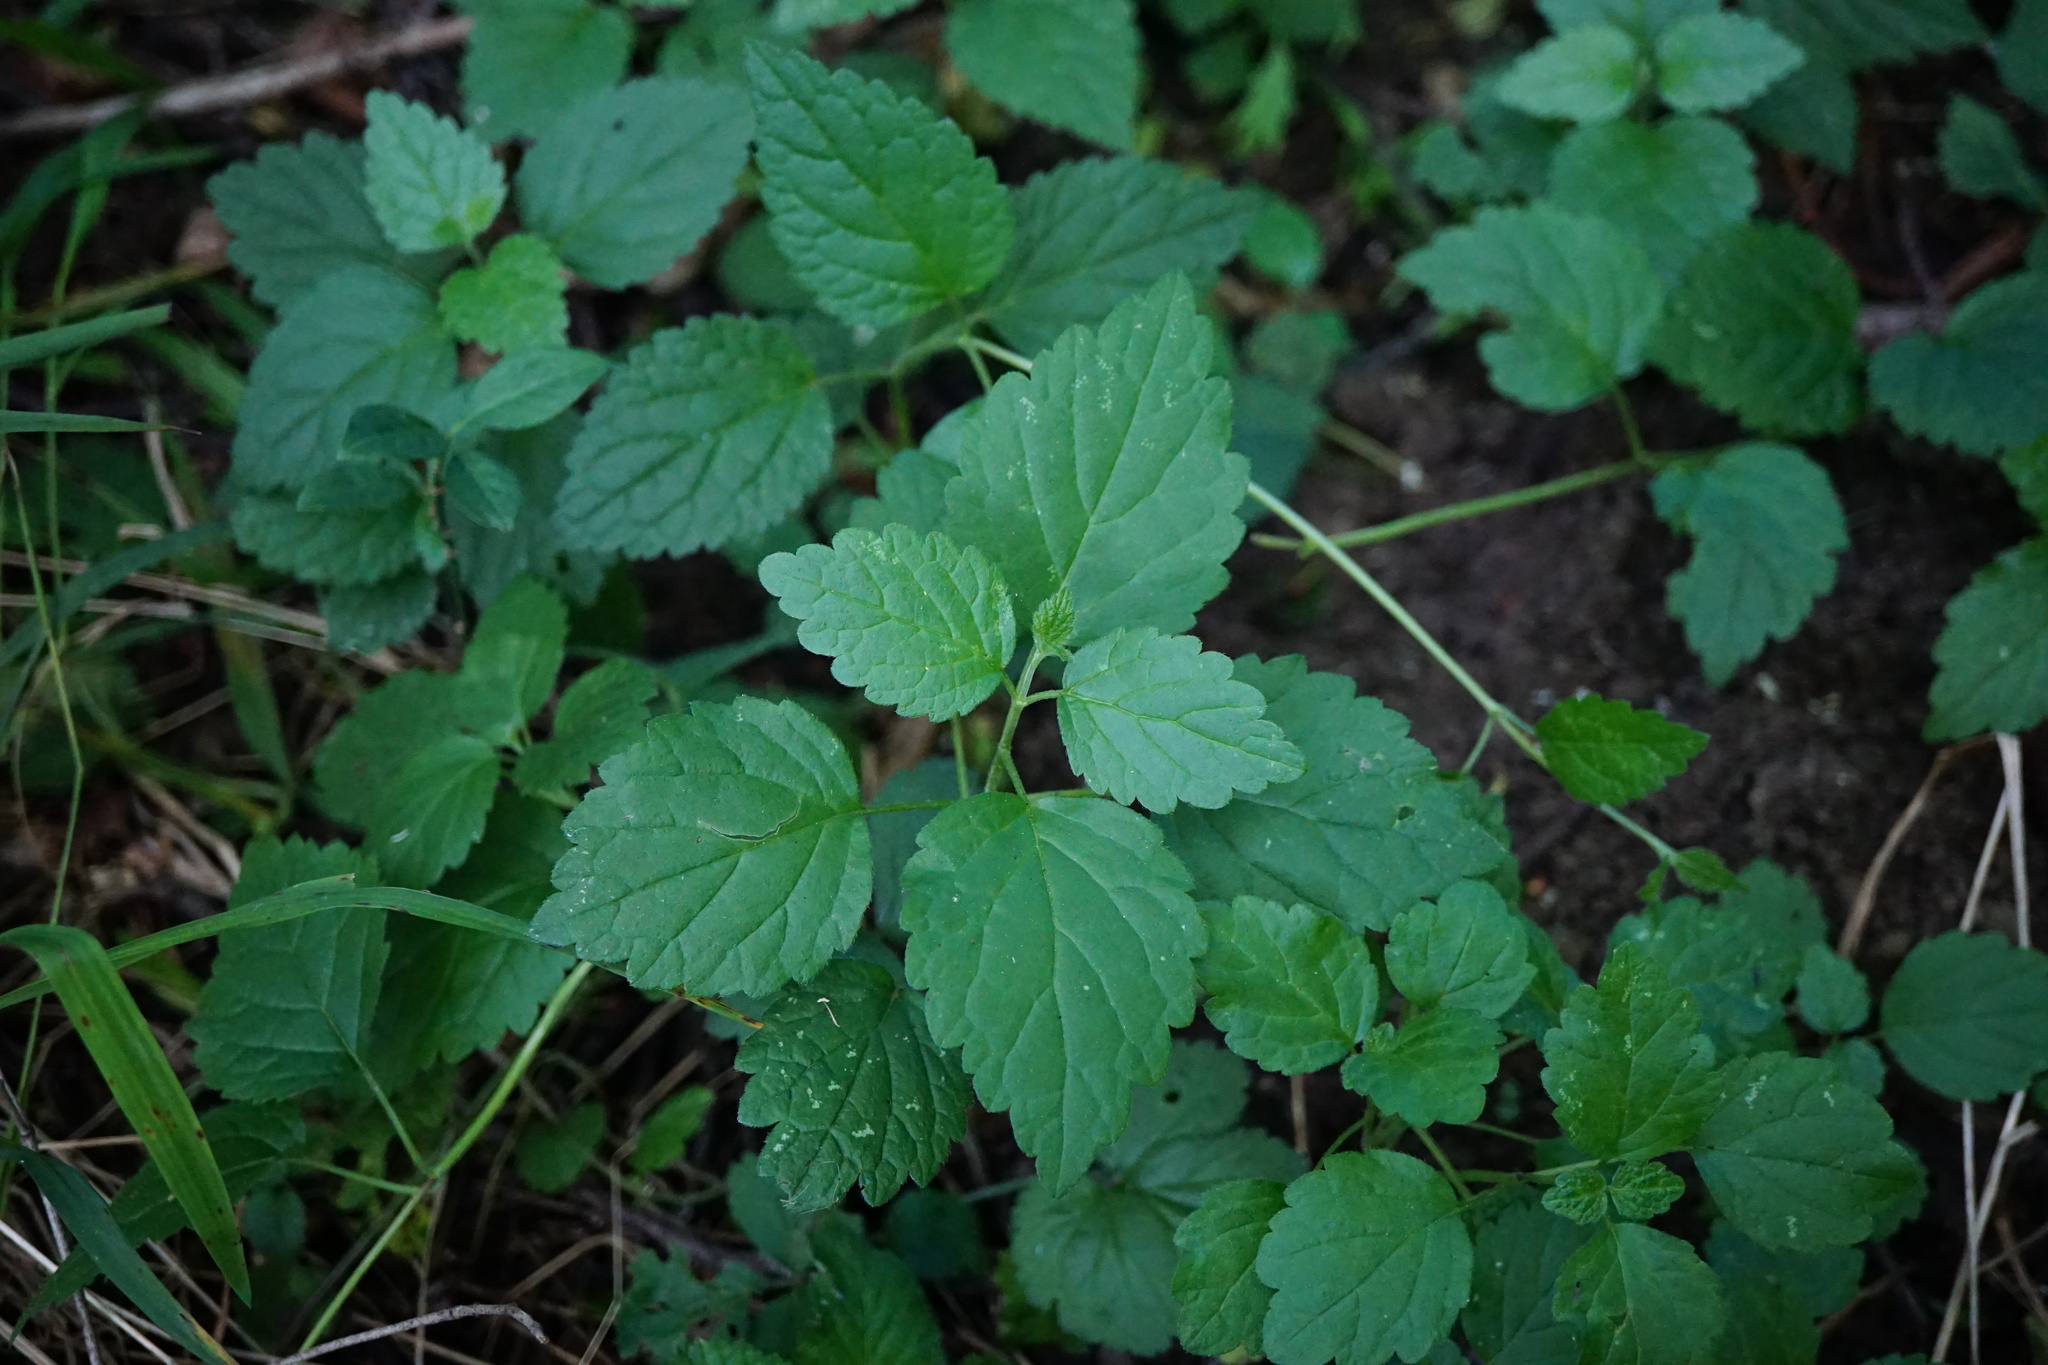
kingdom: Plantae
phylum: Tracheophyta
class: Magnoliopsida
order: Lamiales
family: Lamiaceae
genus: Lamium
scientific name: Lamium galeobdolon
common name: Yellow archangel
